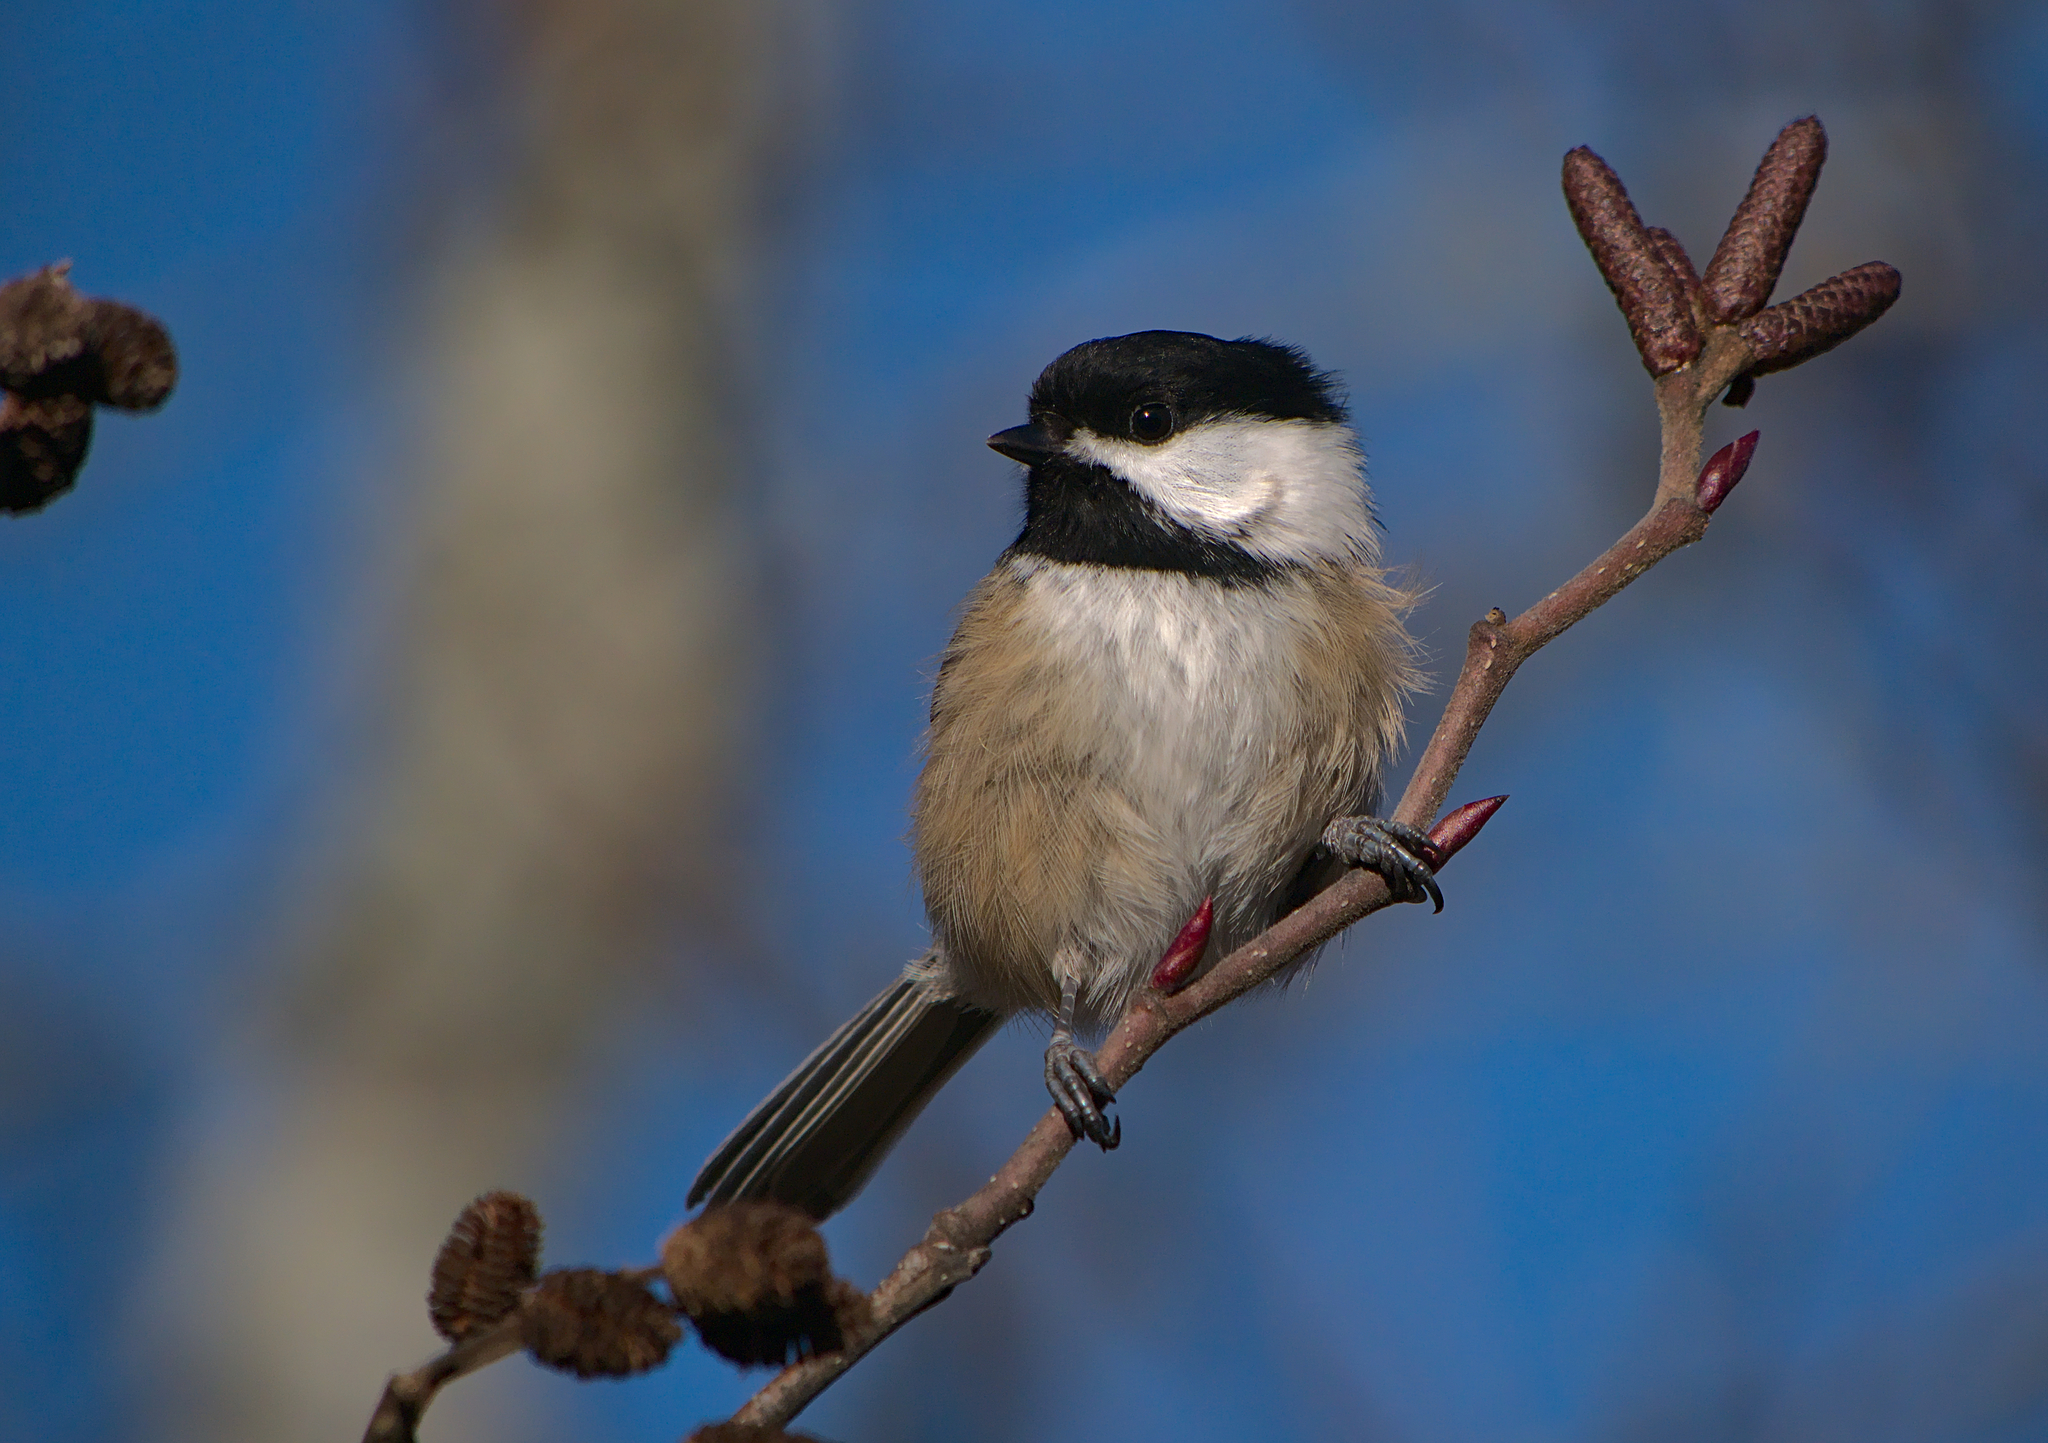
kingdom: Animalia
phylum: Chordata
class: Aves
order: Passeriformes
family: Paridae
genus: Poecile
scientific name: Poecile atricapillus
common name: Black-capped chickadee
